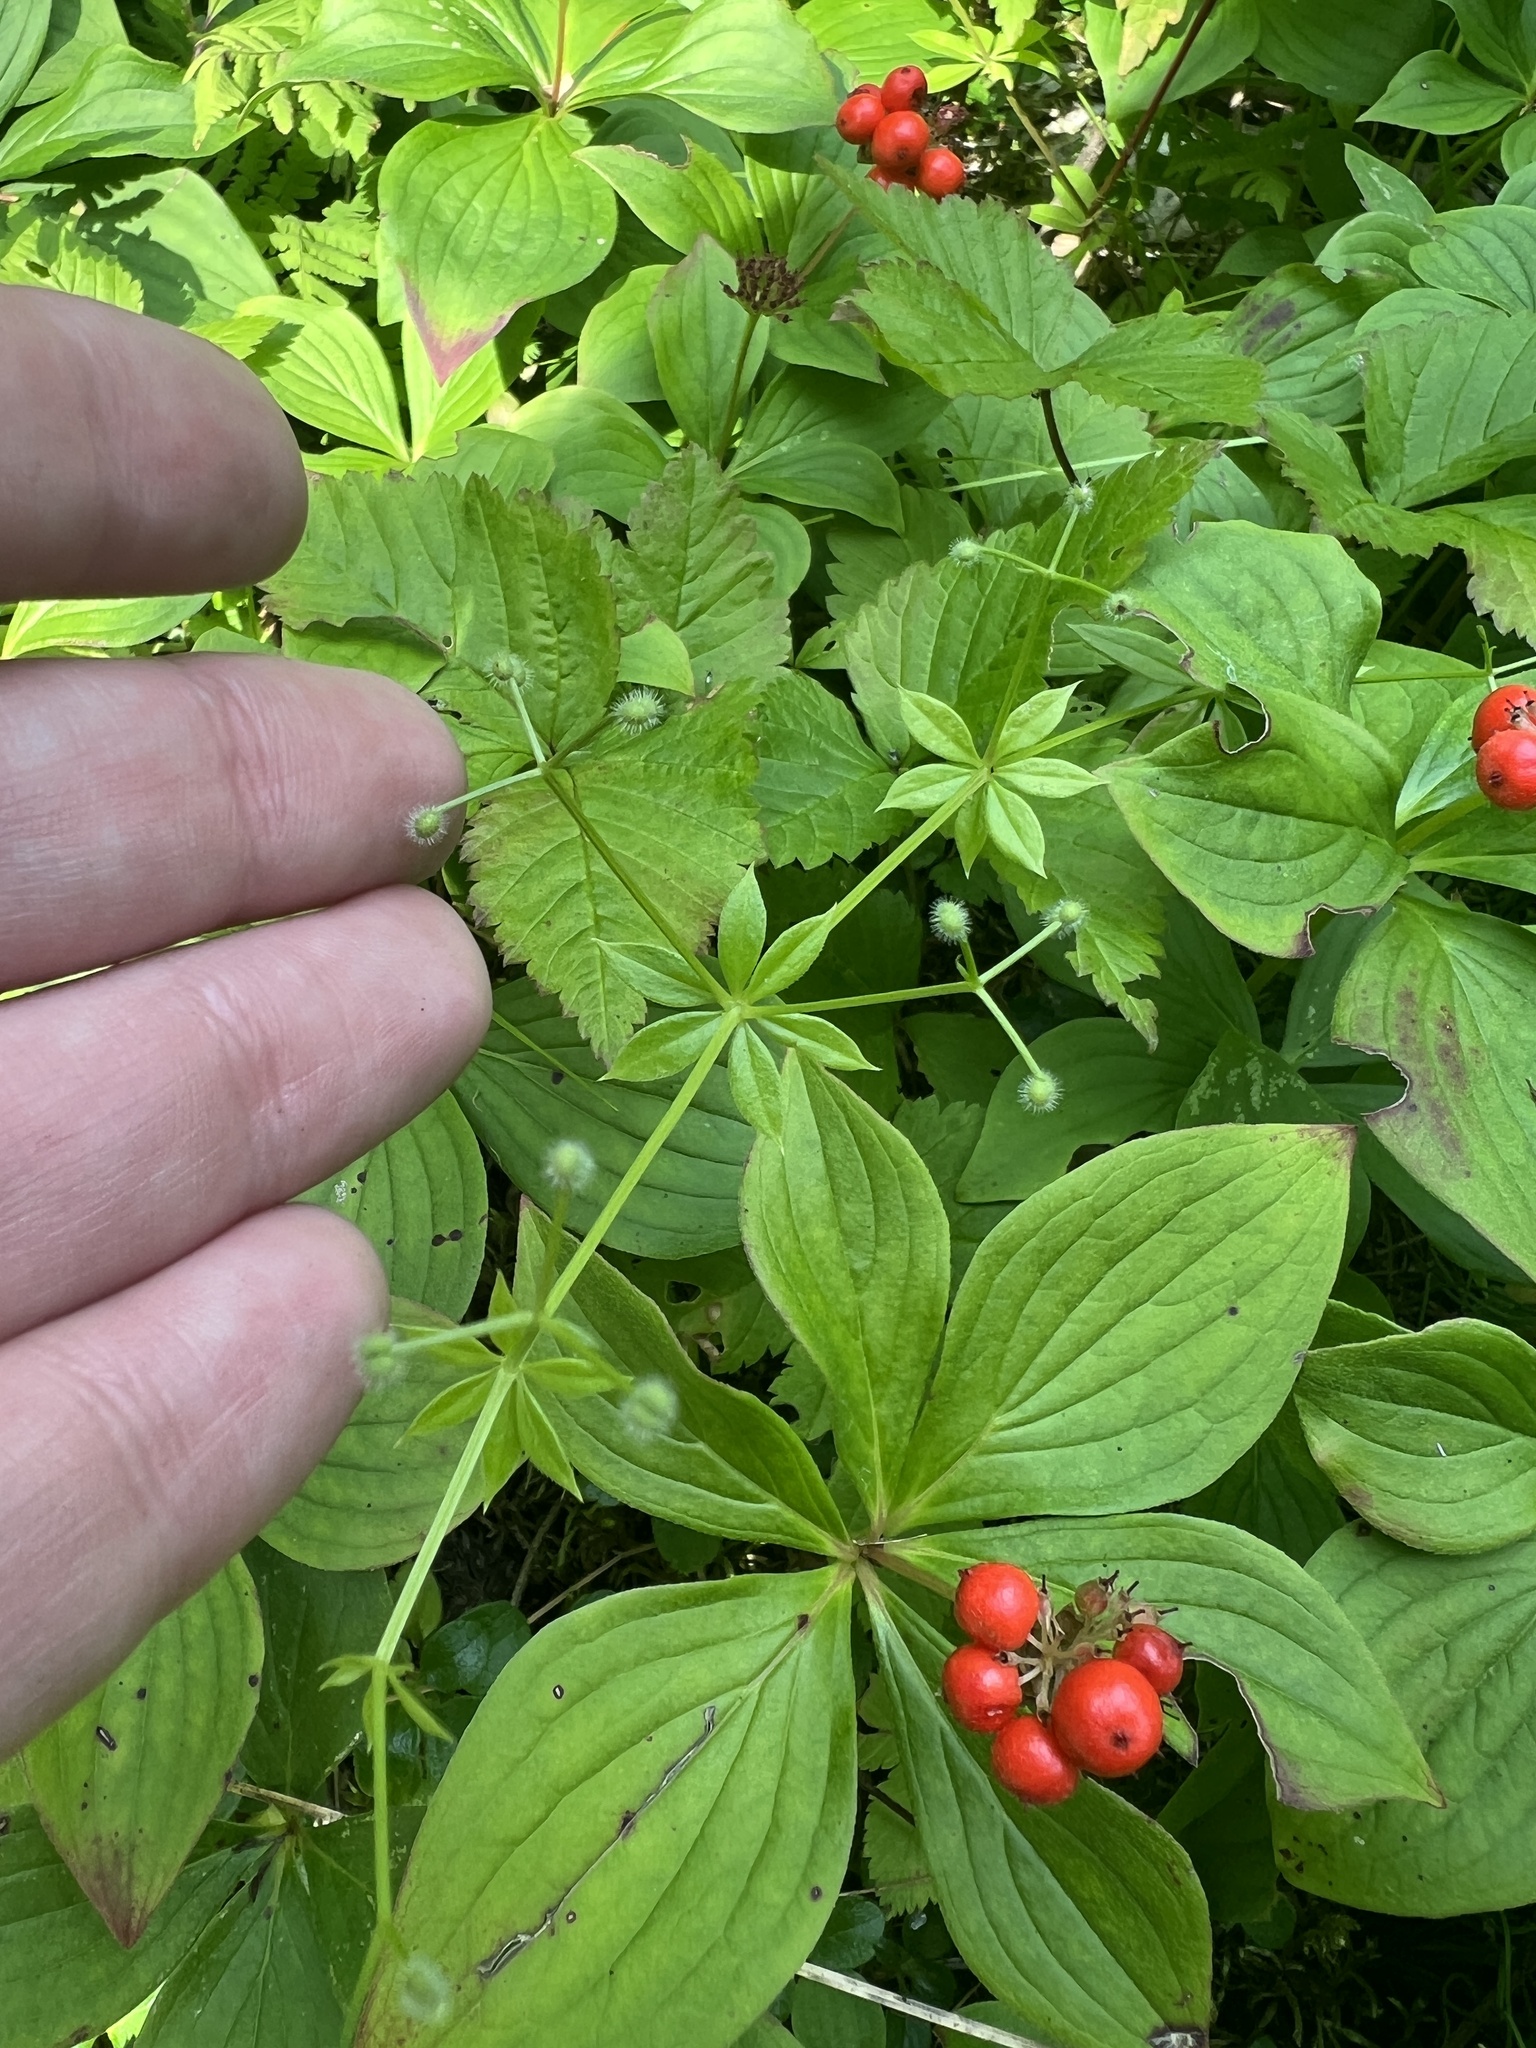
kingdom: Plantae
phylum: Tracheophyta
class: Magnoliopsida
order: Gentianales
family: Rubiaceae
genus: Galium
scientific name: Galium triflorum
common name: Fragrant bedstraw
